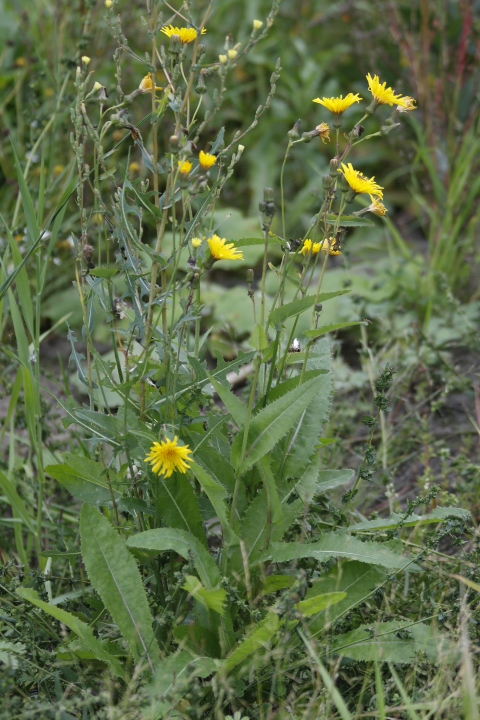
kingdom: Plantae
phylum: Tracheophyta
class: Magnoliopsida
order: Asterales
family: Asteraceae
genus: Sonchus
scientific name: Sonchus arvensis
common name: Perennial sow-thistle
